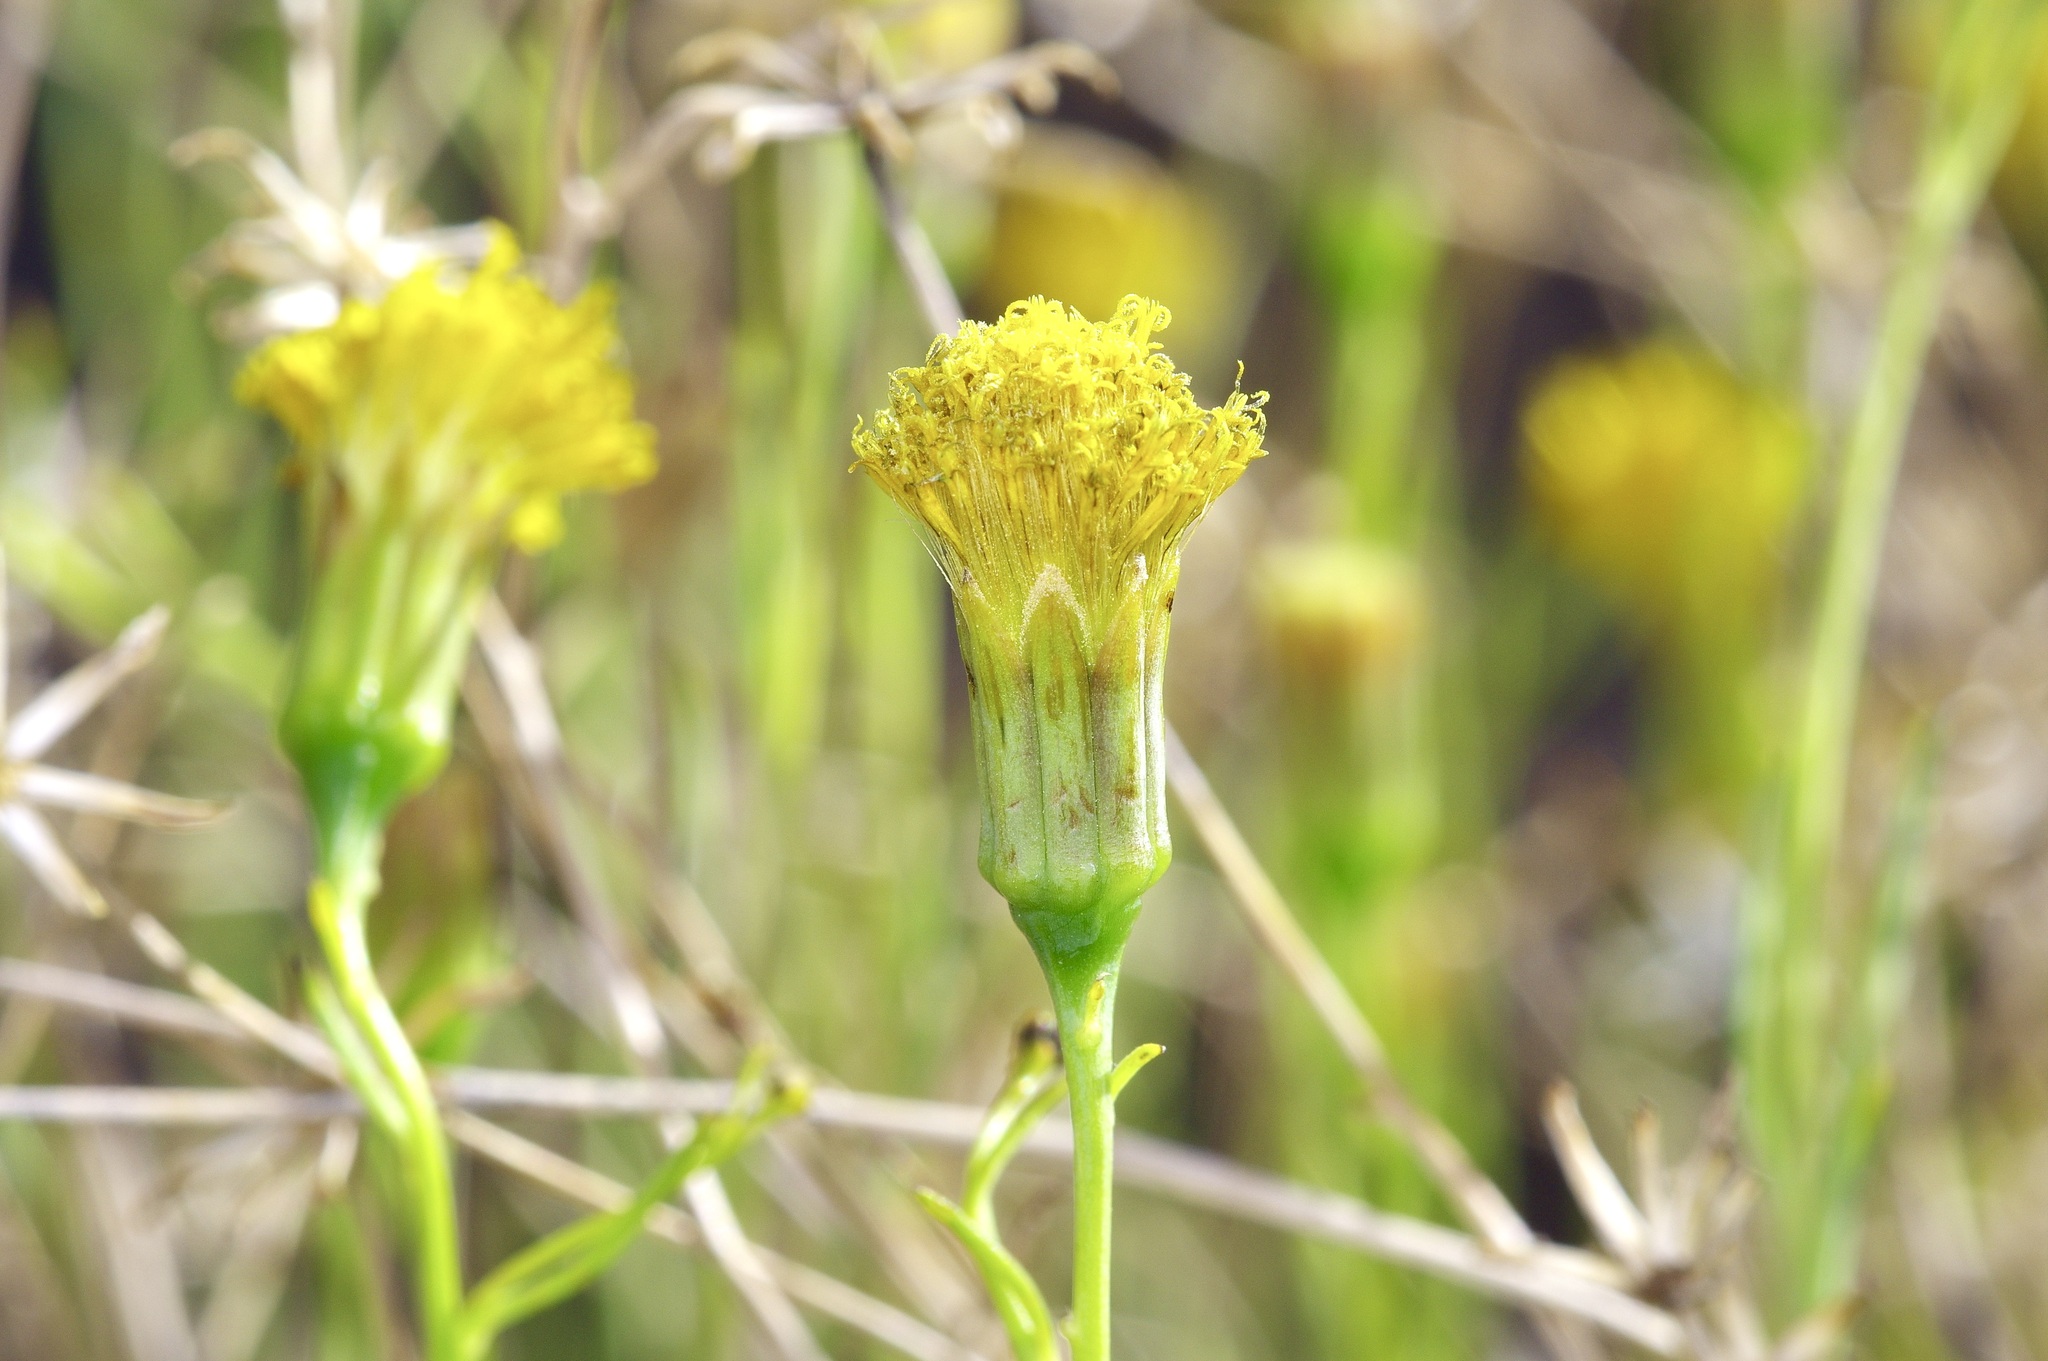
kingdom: Plantae
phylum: Tracheophyta
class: Magnoliopsida
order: Asterales
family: Asteraceae
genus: Porophyllum
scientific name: Porophyllum scoparium
